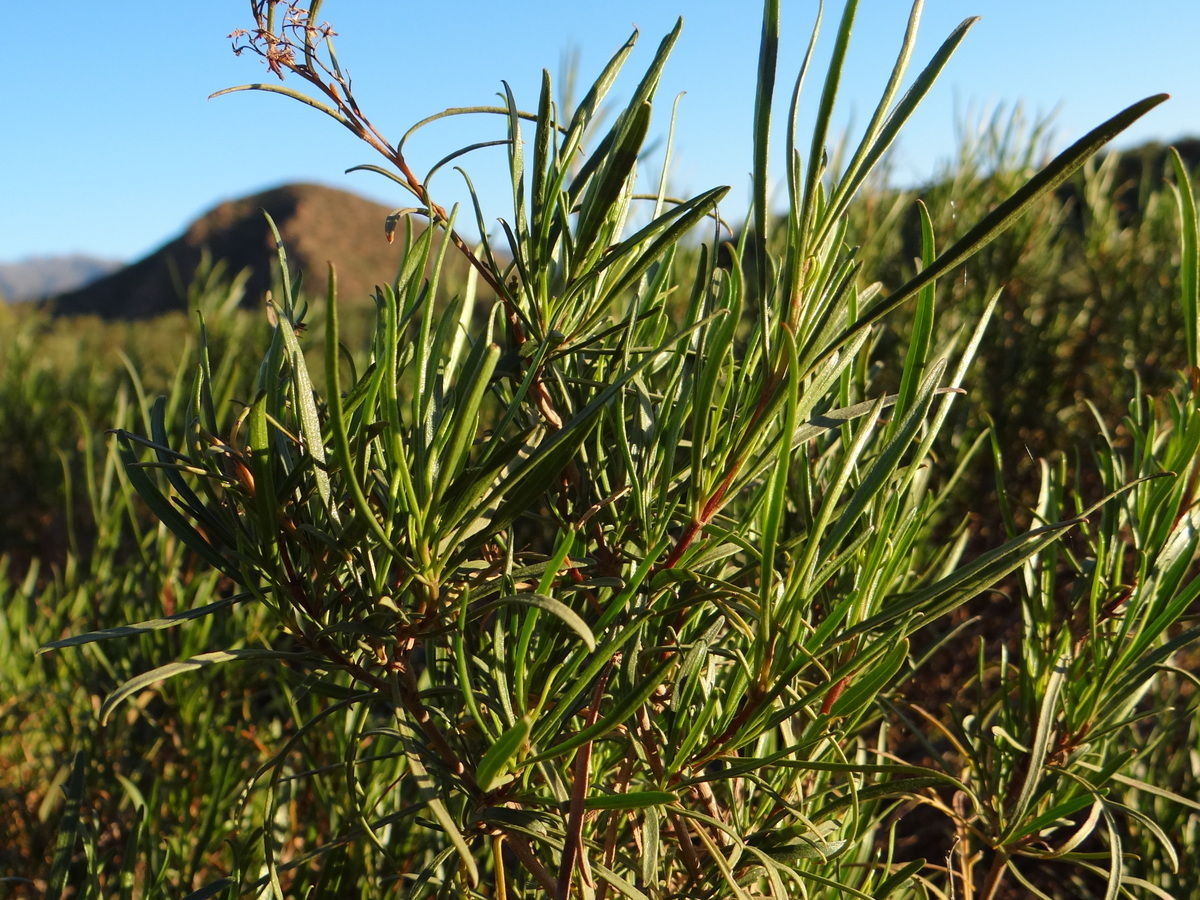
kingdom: Plantae
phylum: Tracheophyta
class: Magnoliopsida
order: Malpighiales
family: Euphorbiaceae
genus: Colliguaja
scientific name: Colliguaja integerrima
